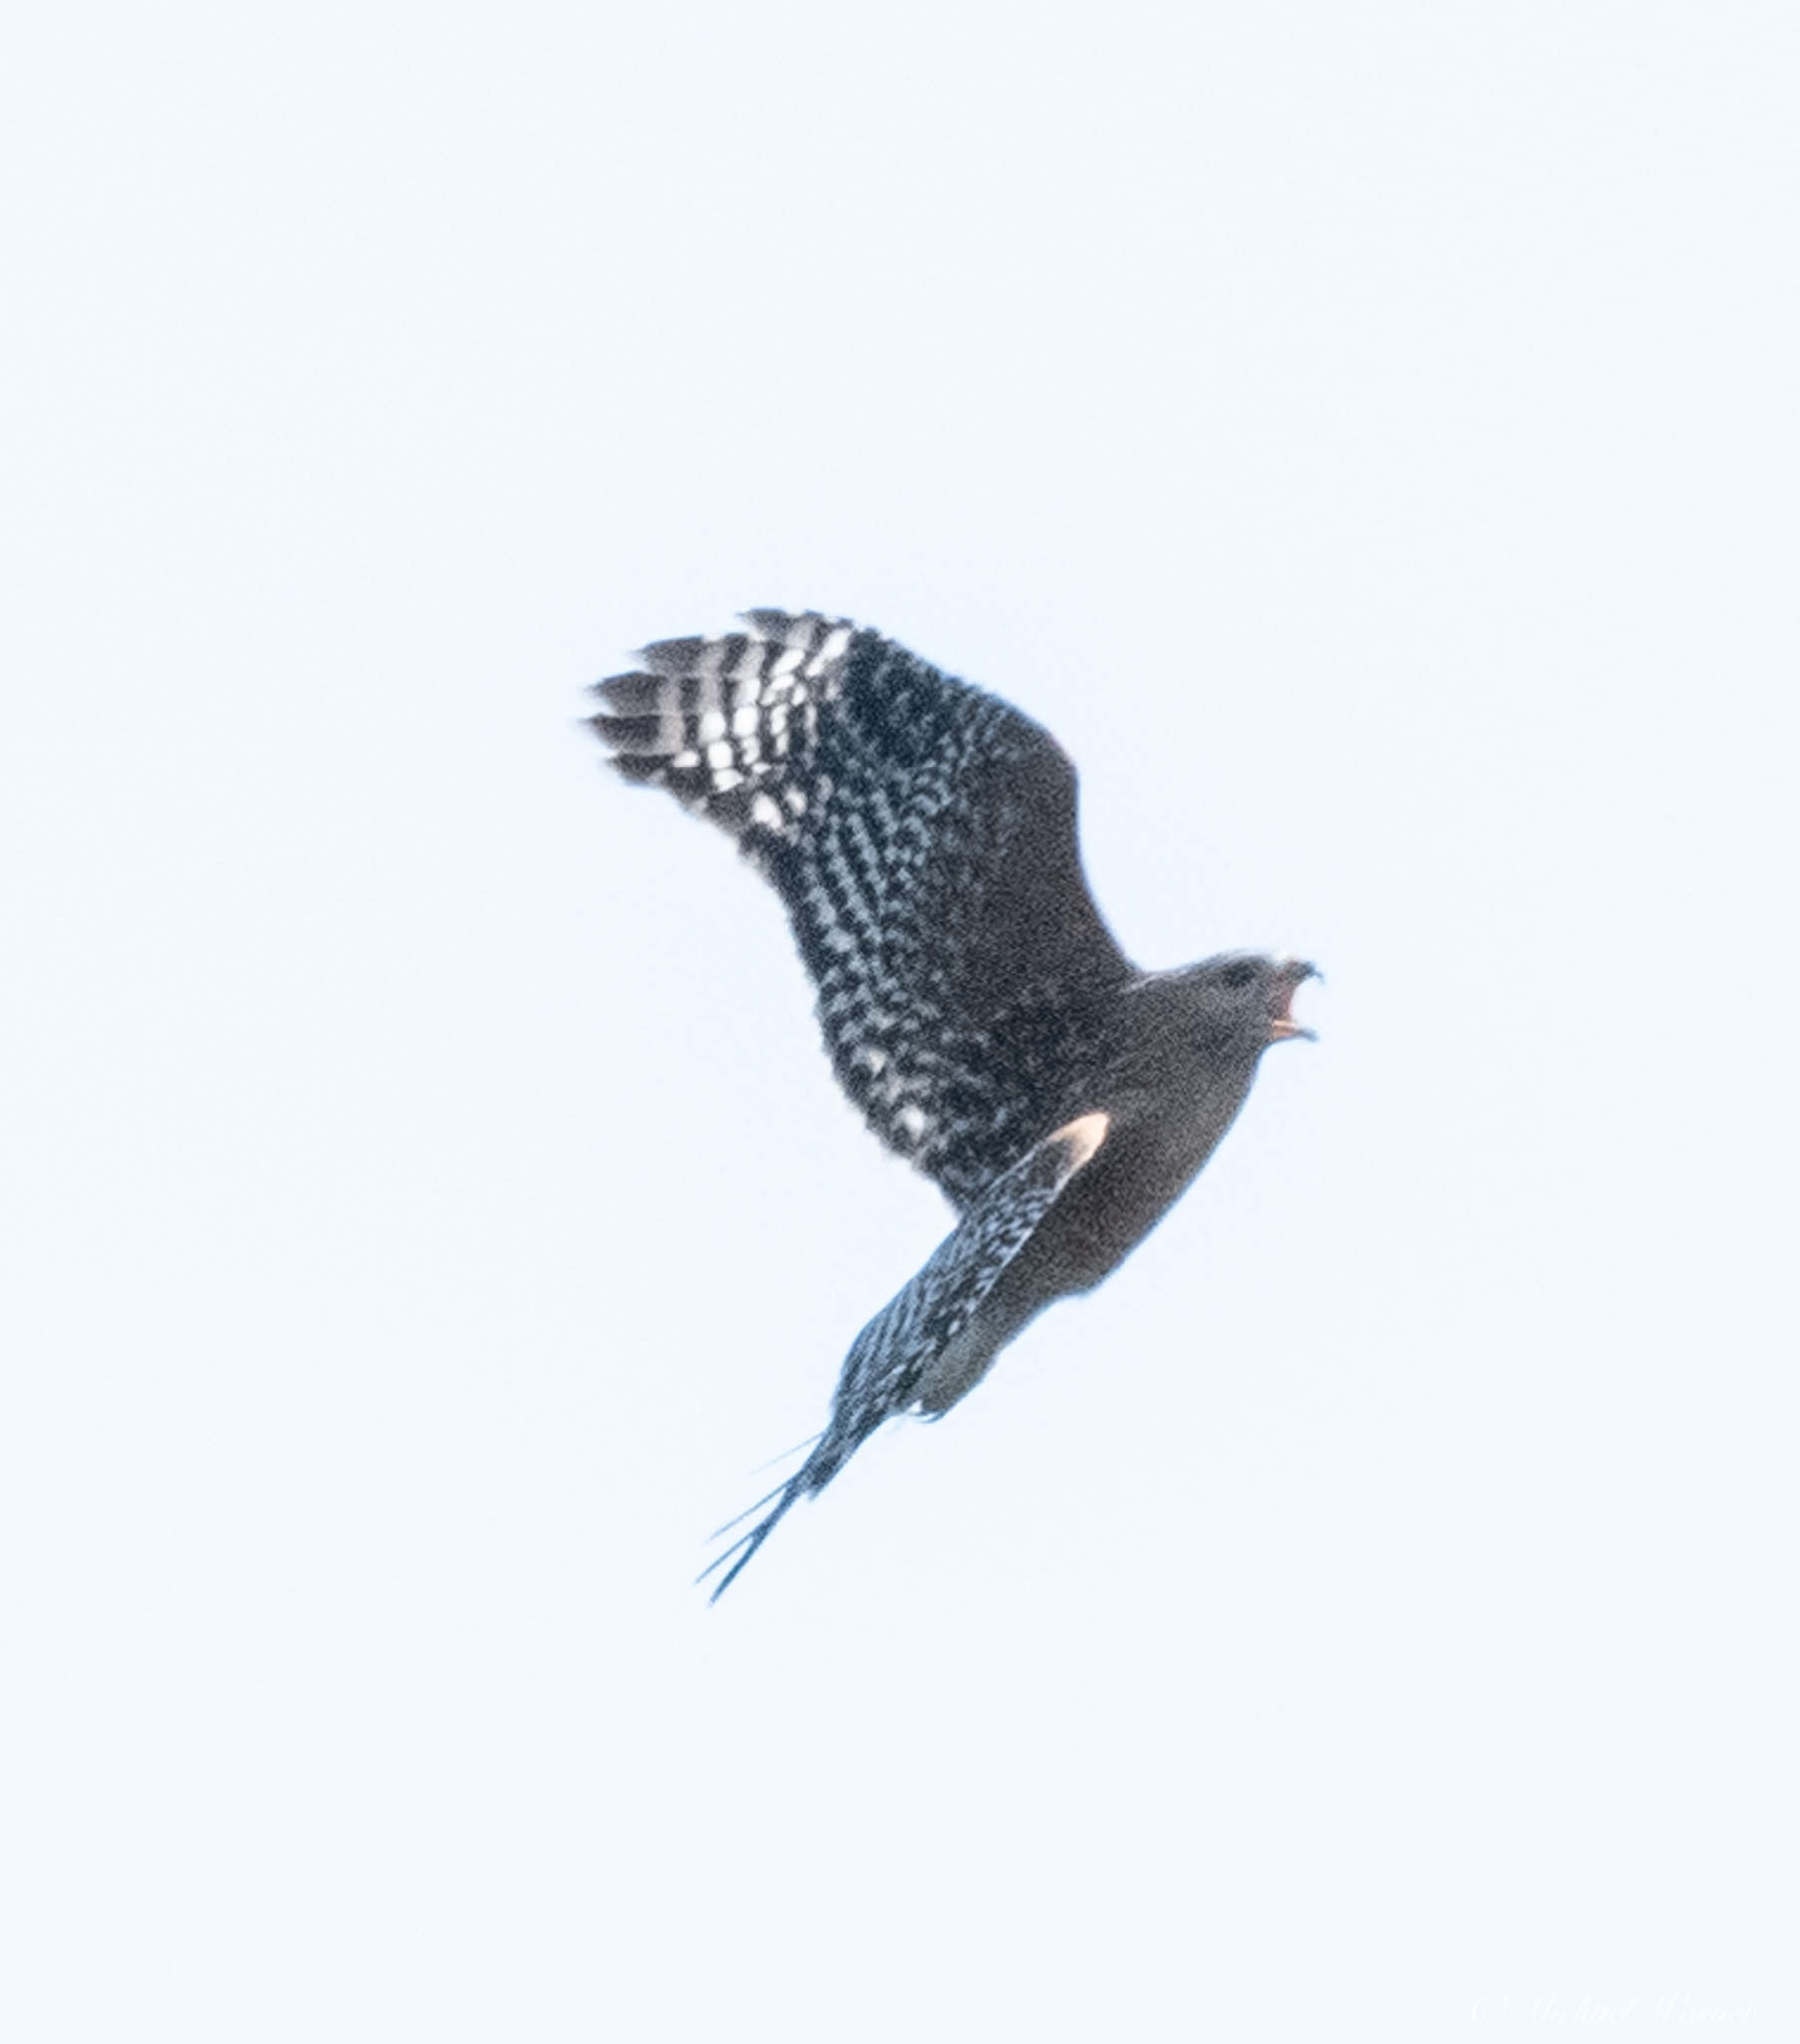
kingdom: Animalia
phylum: Chordata
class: Aves
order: Accipitriformes
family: Accipitridae
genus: Buteo
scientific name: Buteo lineatus
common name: Red-shouldered hawk
